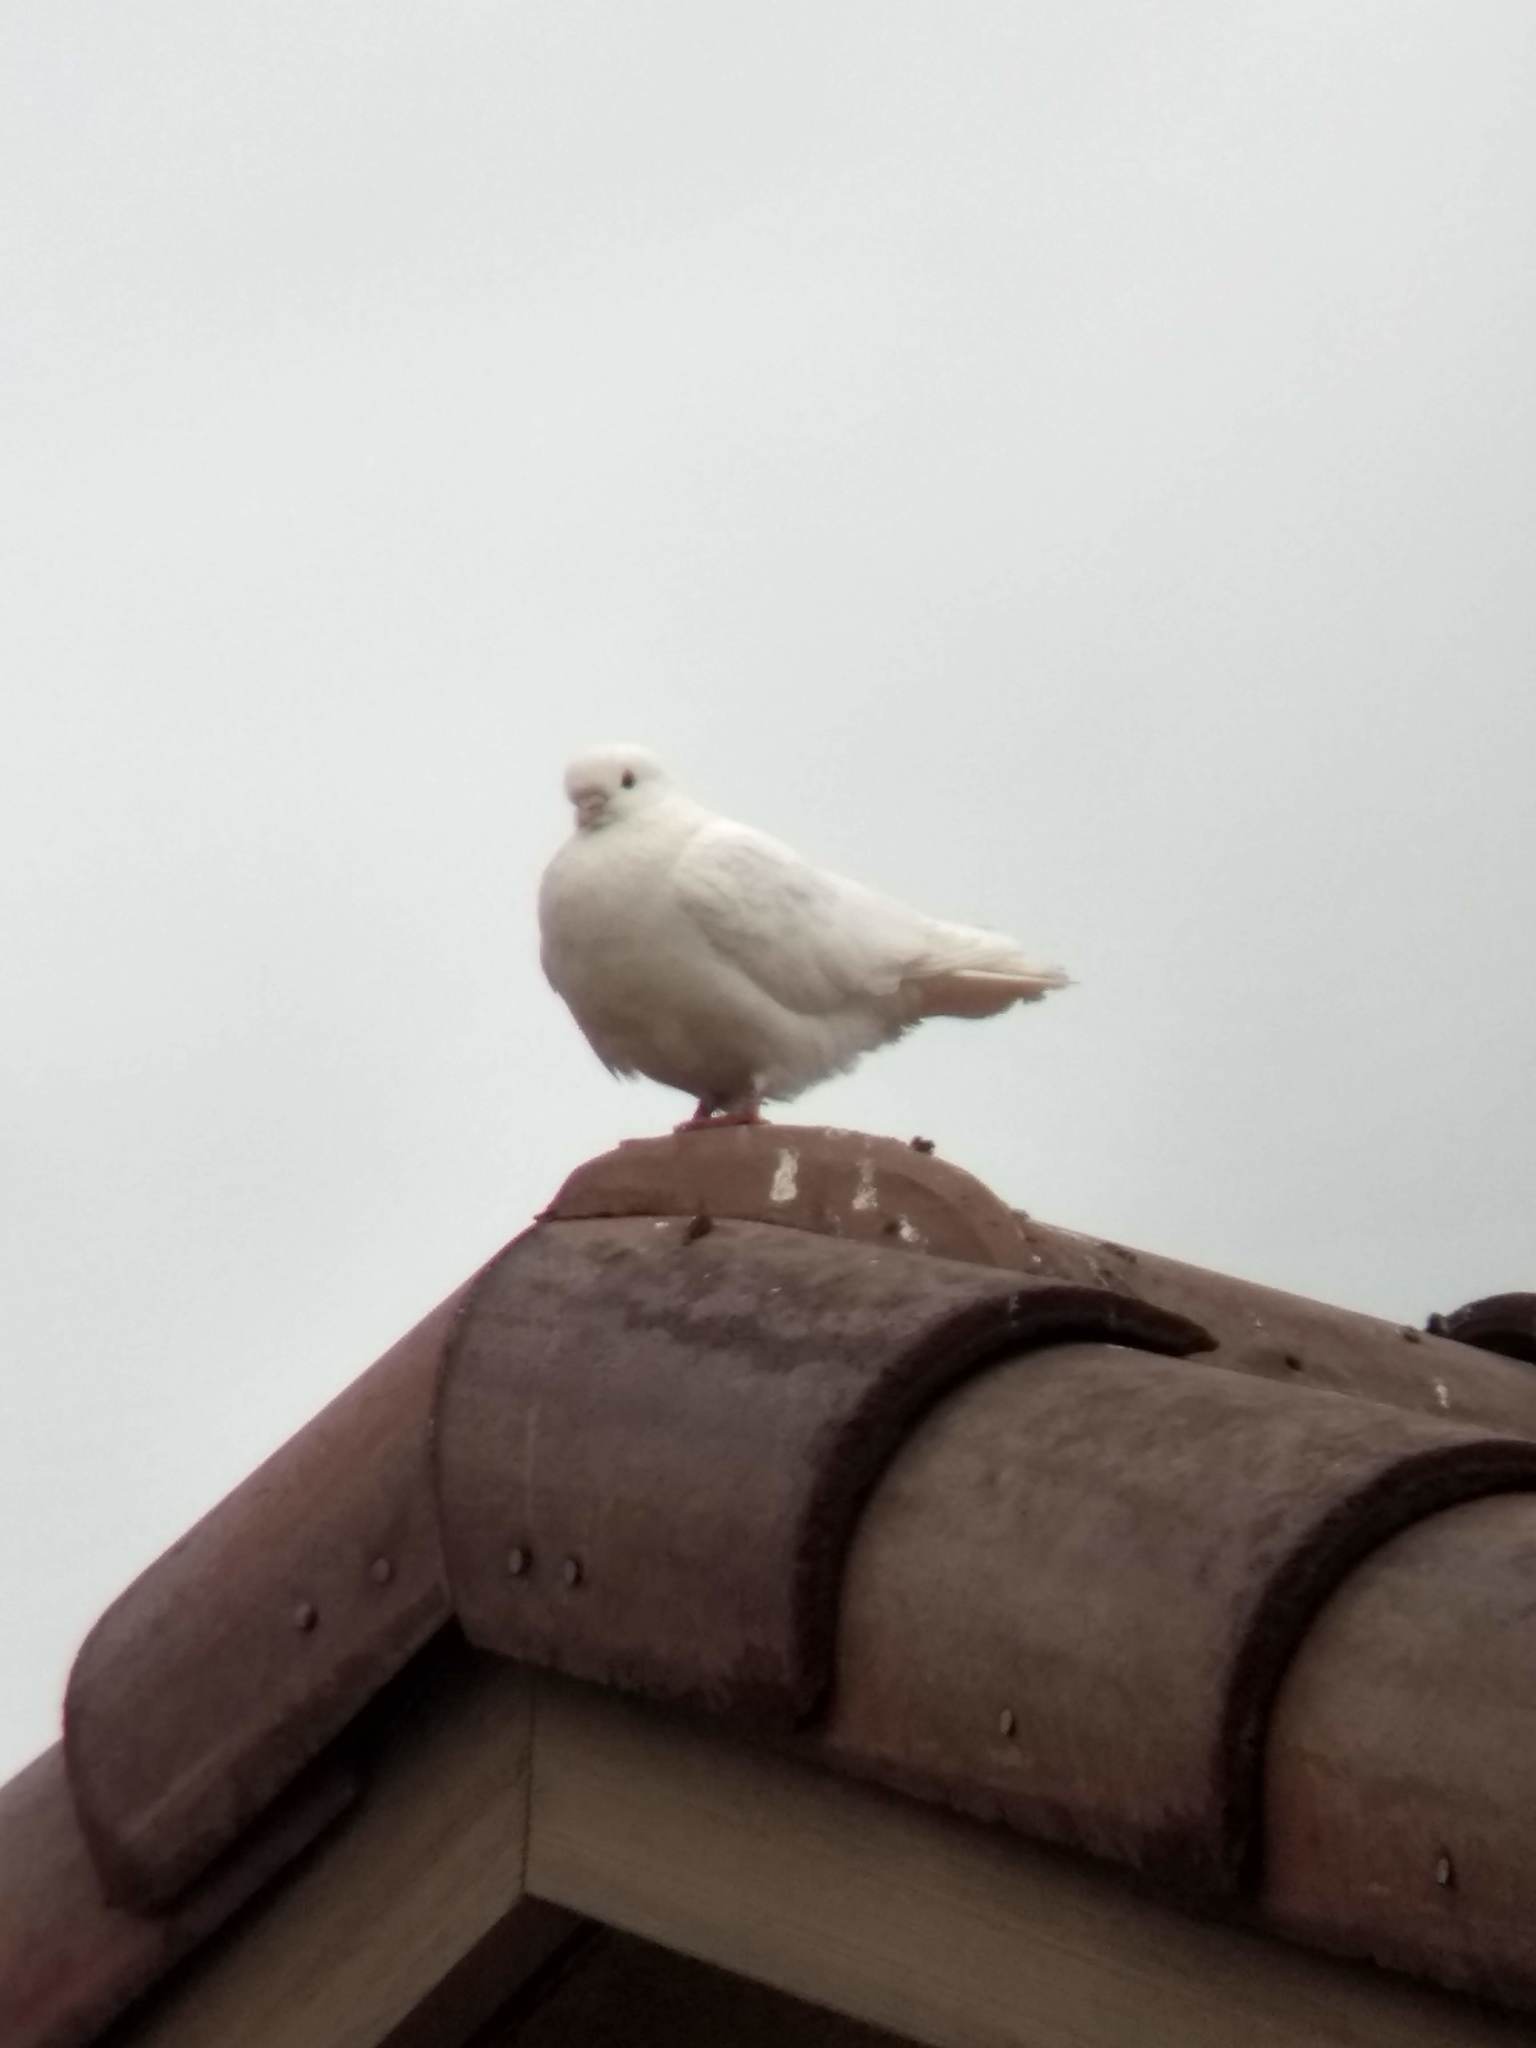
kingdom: Animalia
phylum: Chordata
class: Aves
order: Columbiformes
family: Columbidae
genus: Columba
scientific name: Columba livia
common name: Rock pigeon
